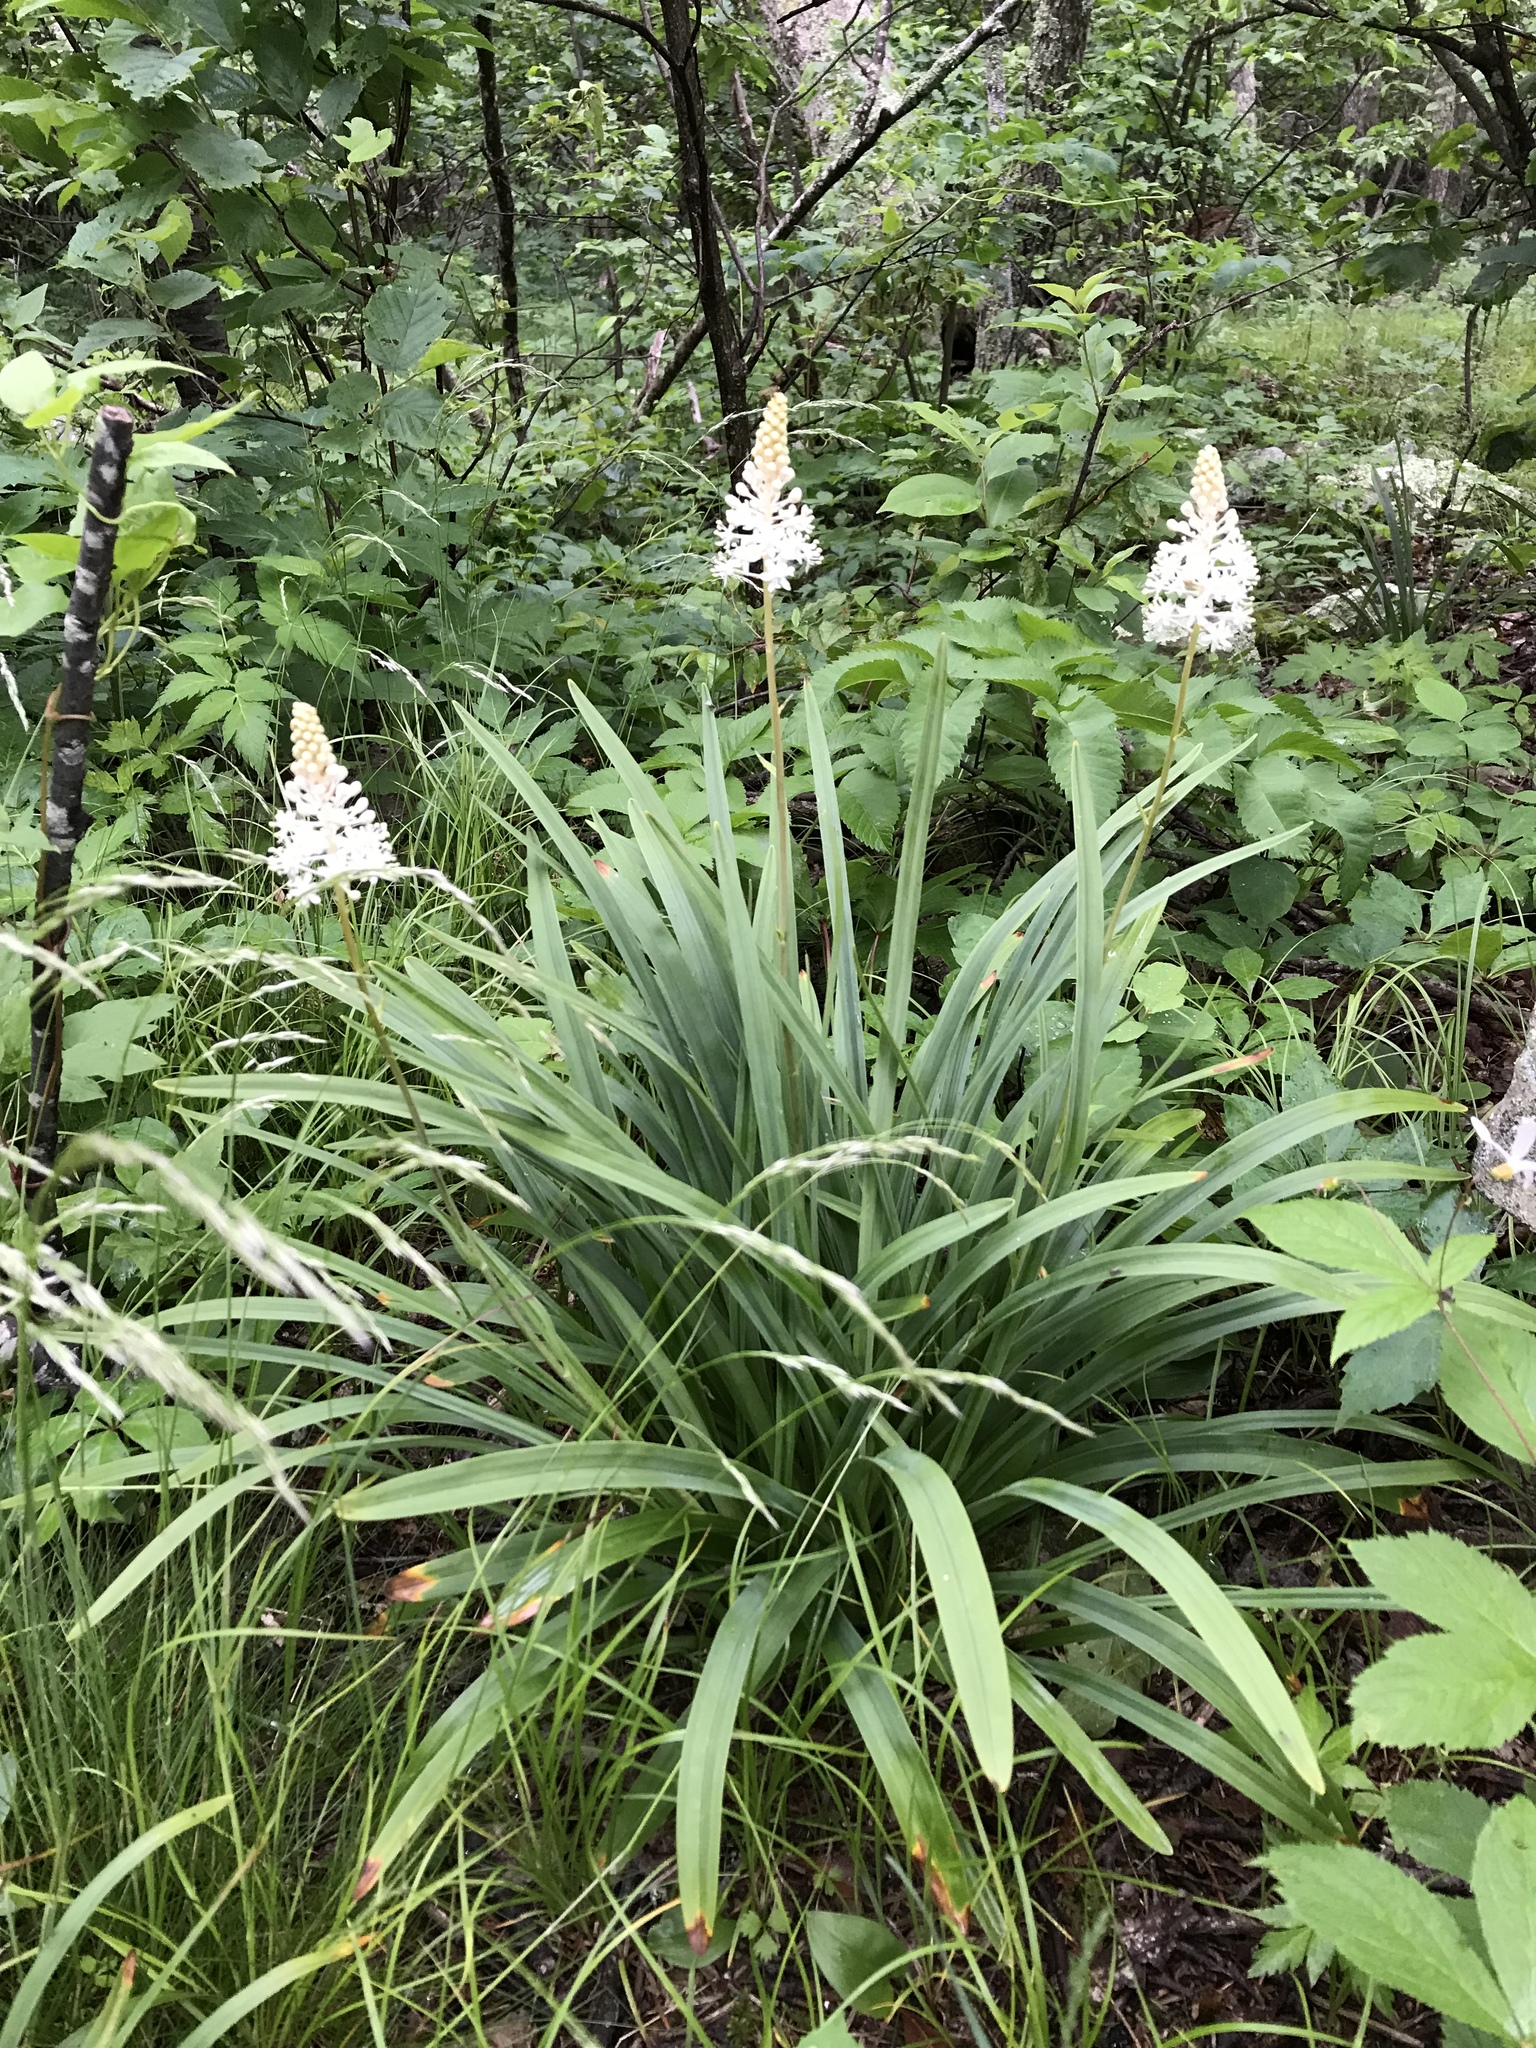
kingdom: Plantae
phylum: Tracheophyta
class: Liliopsida
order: Liliales
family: Melanthiaceae
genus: Amianthium
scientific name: Amianthium muscitoxicum
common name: Fly-poison
